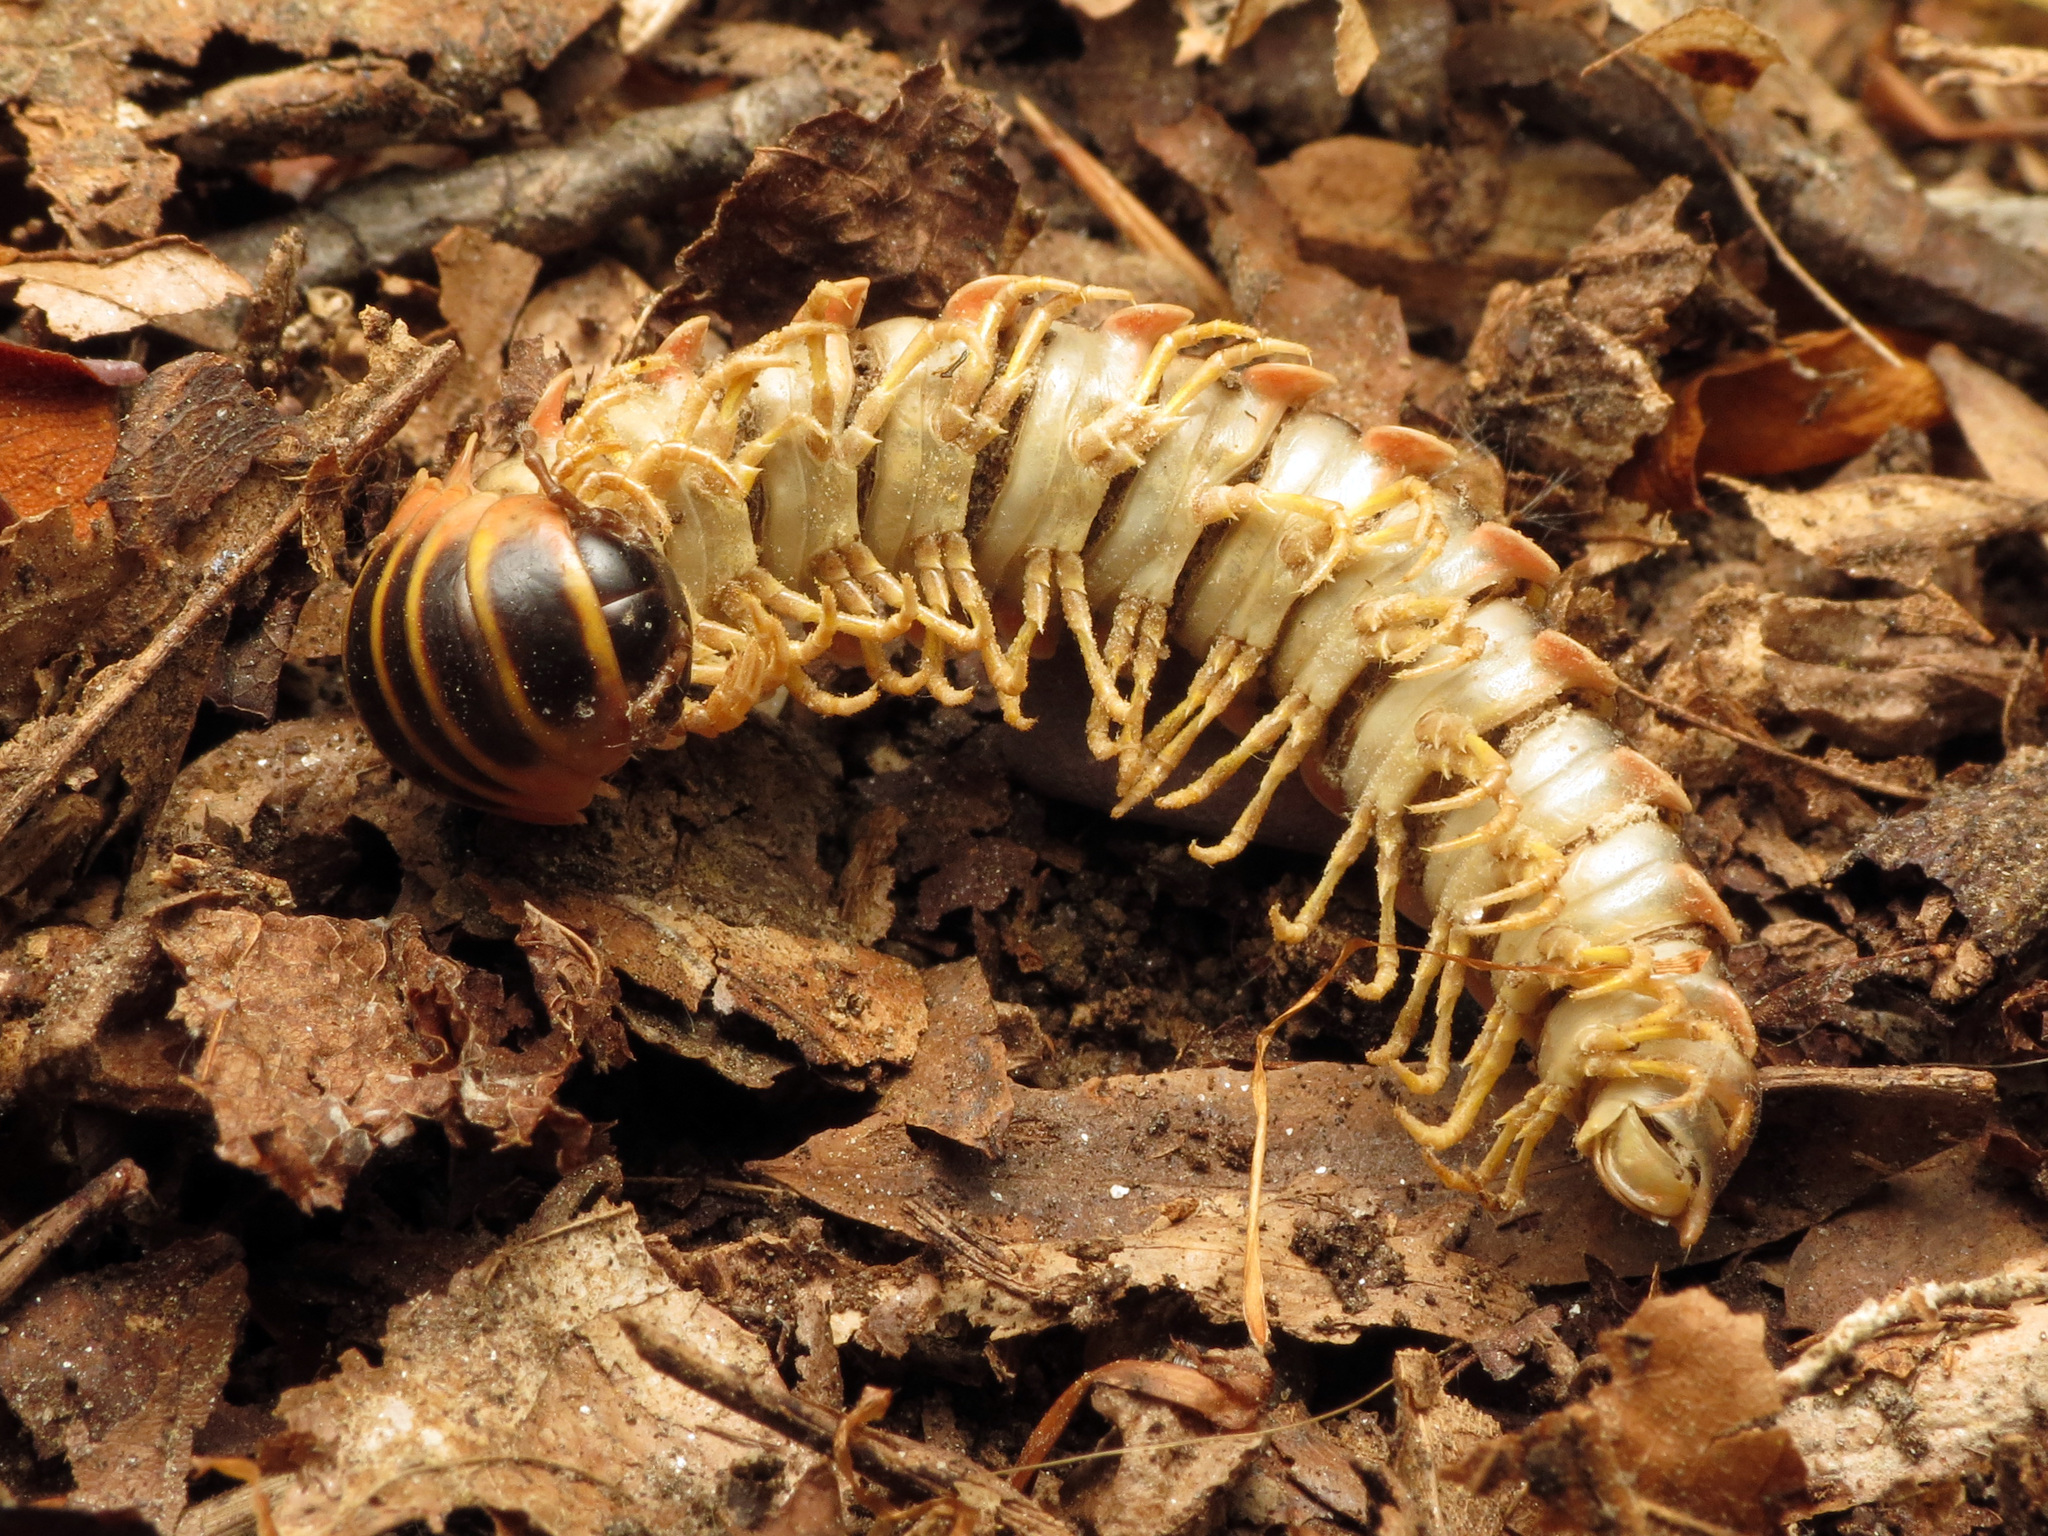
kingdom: Animalia
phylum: Arthropoda
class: Diplopoda
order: Polydesmida
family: Xystodesmidae
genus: Apheloria
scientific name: Apheloria virginiensis
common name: Black-and-gold flat millipede
